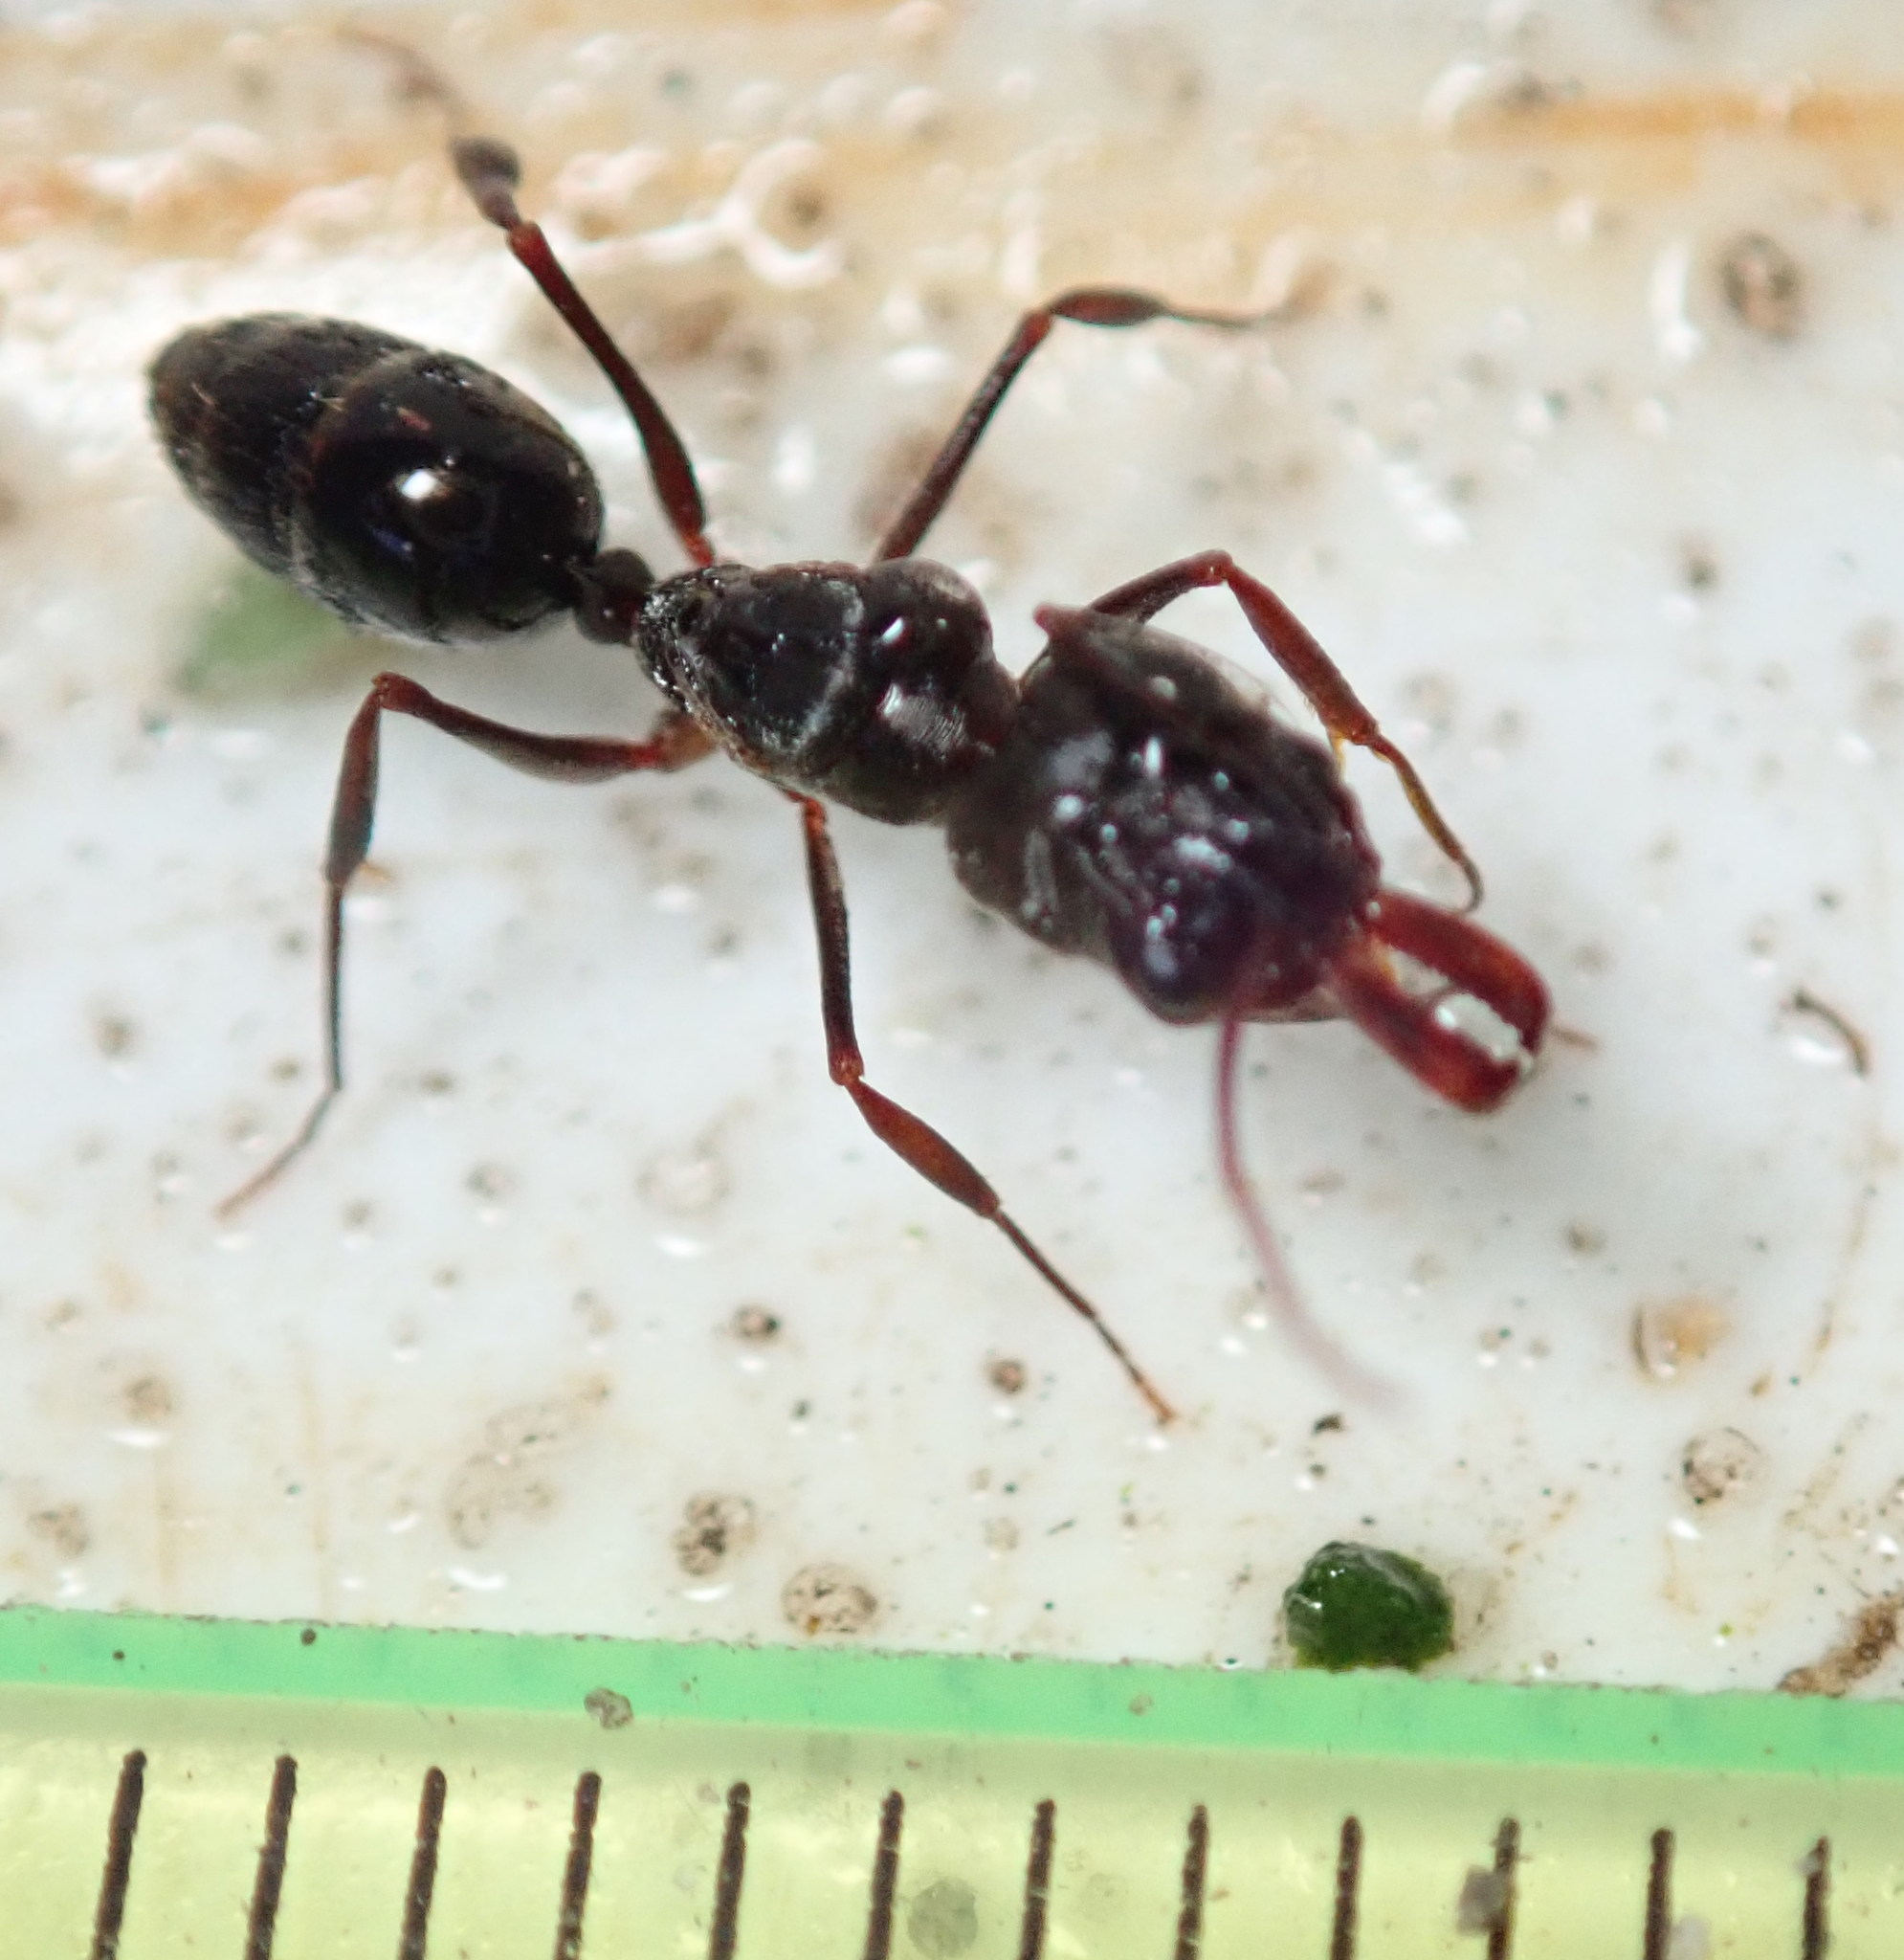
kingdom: Animalia
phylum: Arthropoda
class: Insecta
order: Hymenoptera
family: Formicidae
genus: Odontomachus
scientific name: Odontomachus troglodytes
